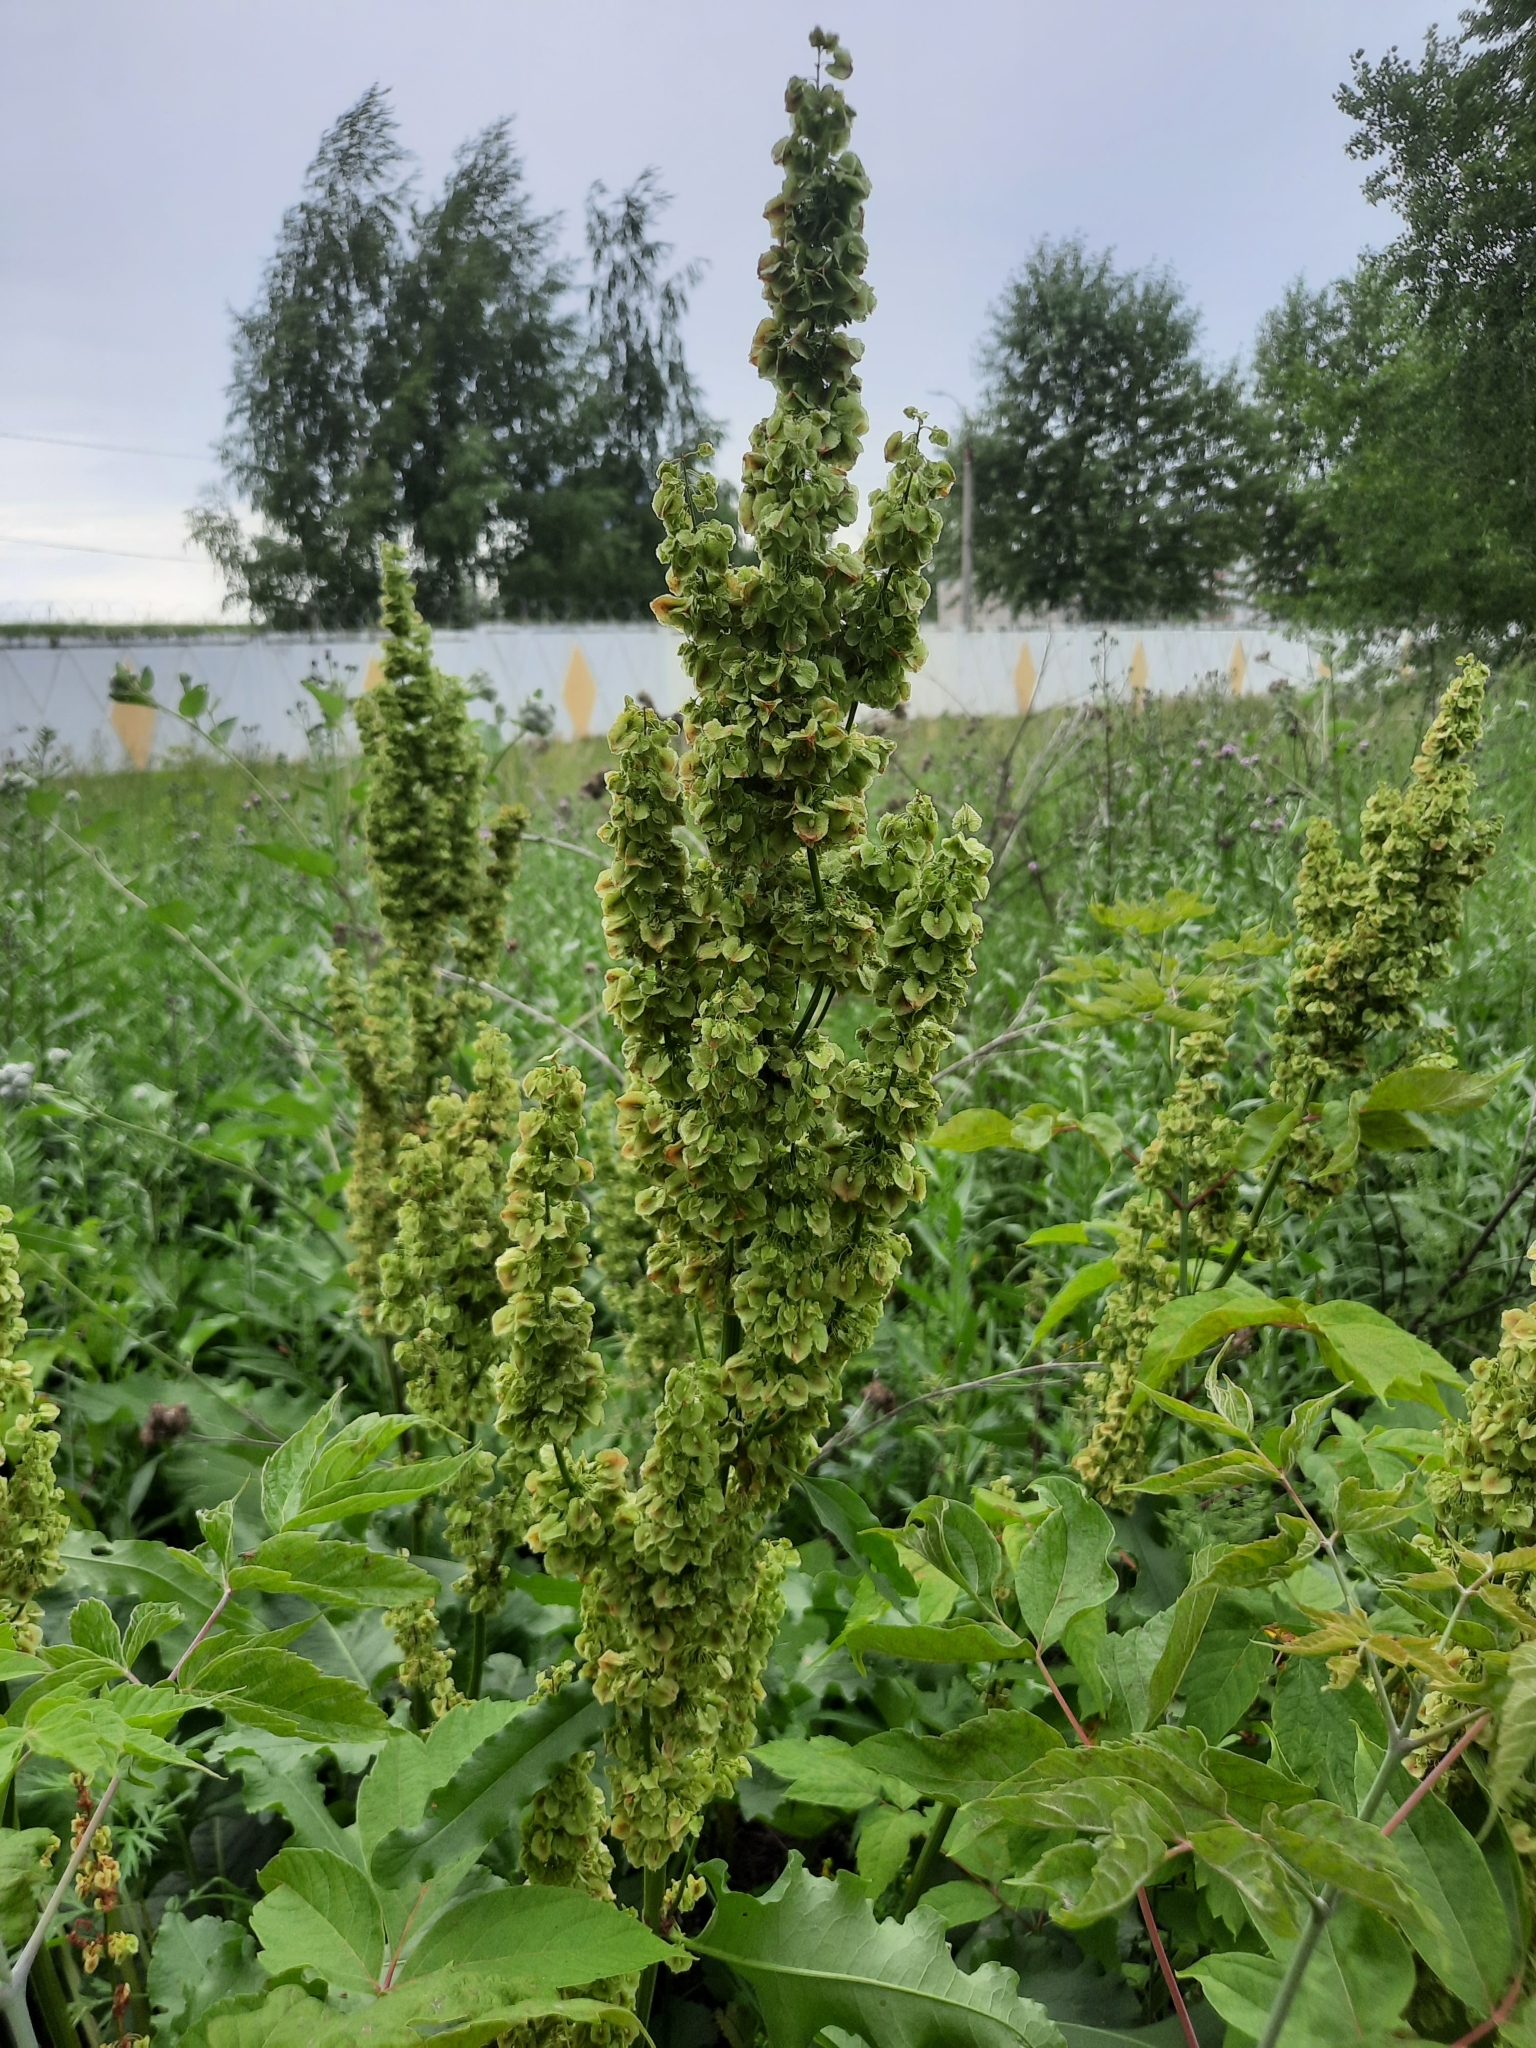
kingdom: Plantae
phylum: Tracheophyta
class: Magnoliopsida
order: Caryophyllales
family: Polygonaceae
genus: Rumex
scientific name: Rumex confertus
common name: Russian dock
